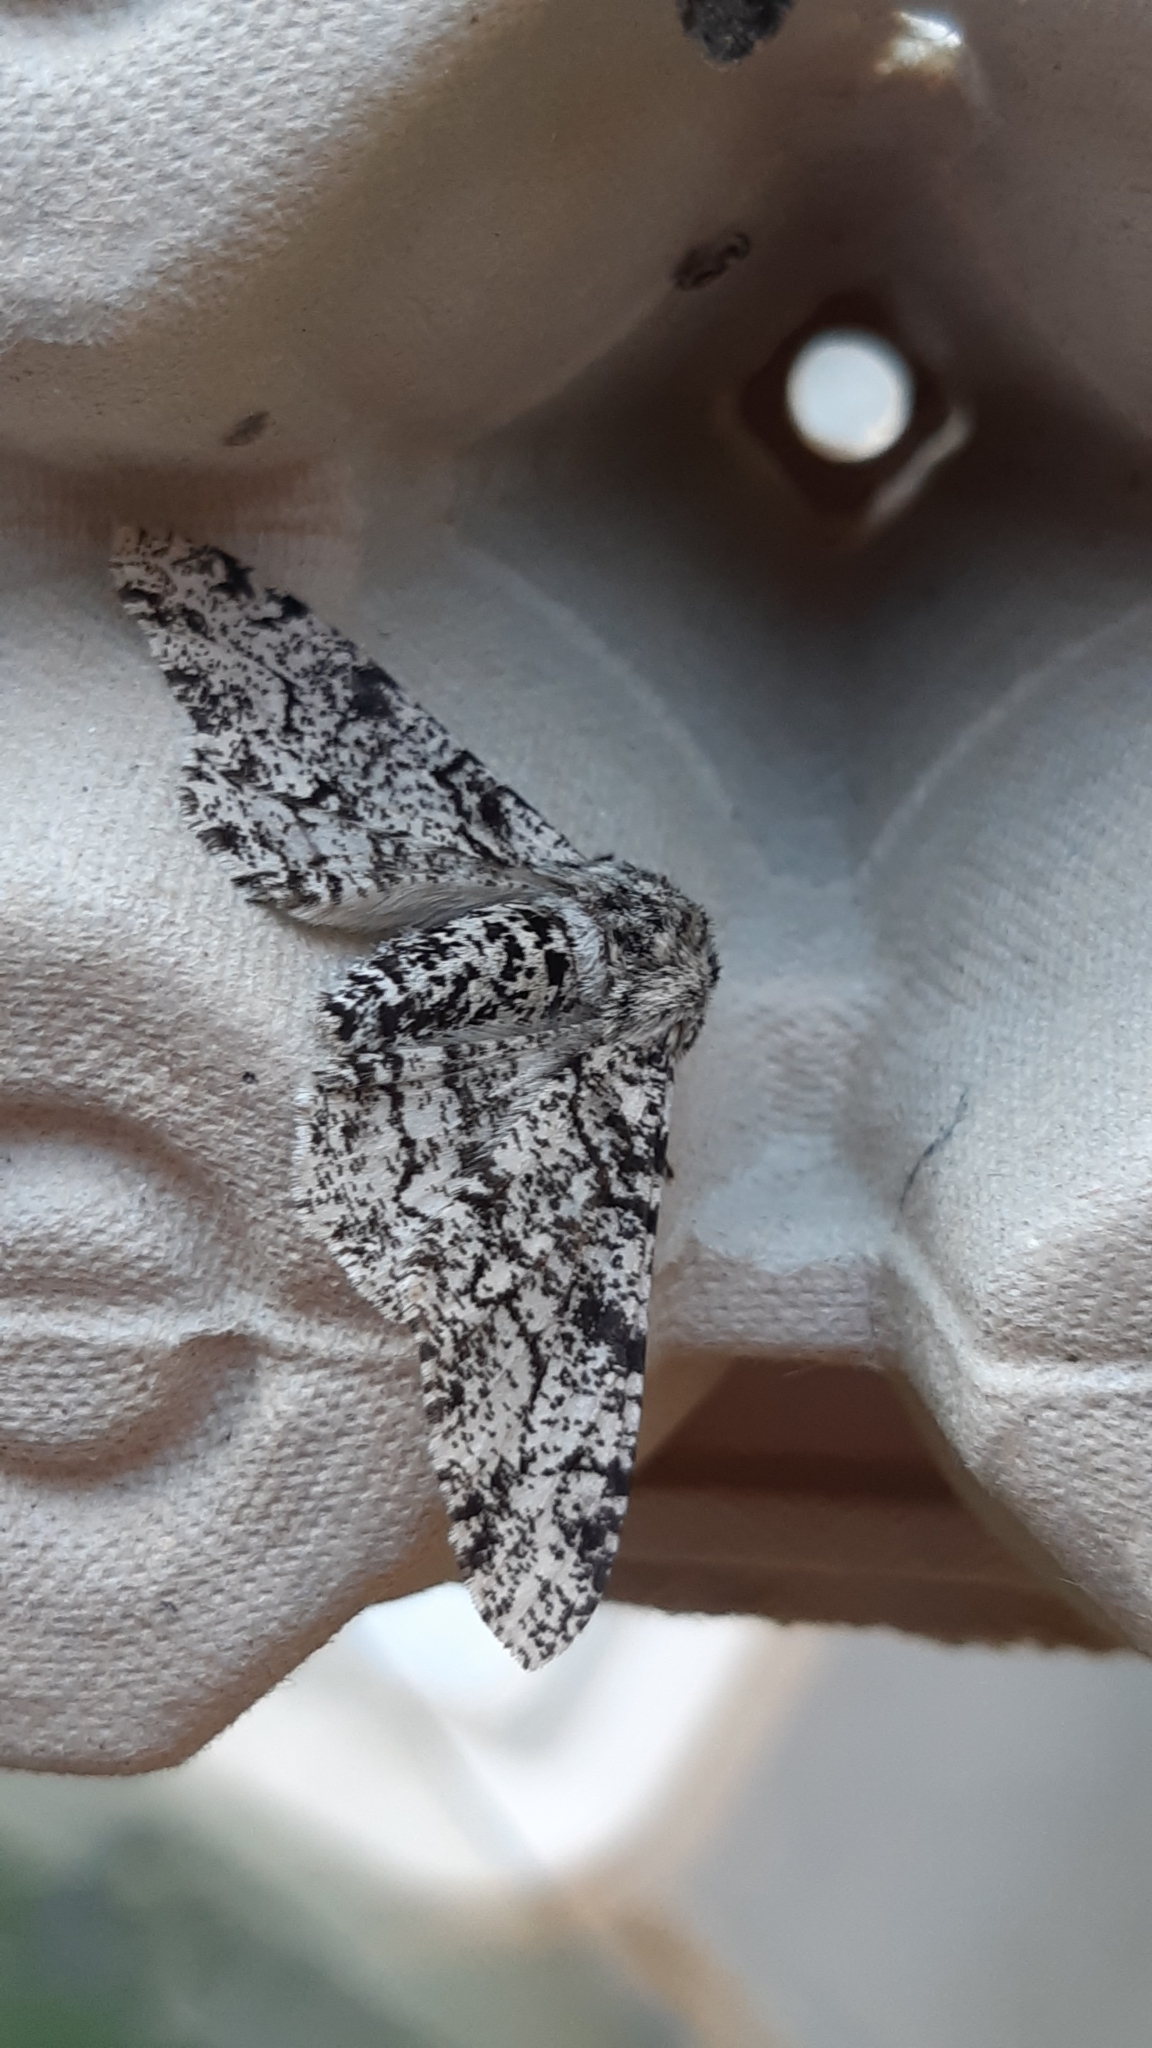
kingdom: Animalia
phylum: Arthropoda
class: Insecta
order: Lepidoptera
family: Geometridae
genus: Biston
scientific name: Biston betularia
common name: Peppered moth
